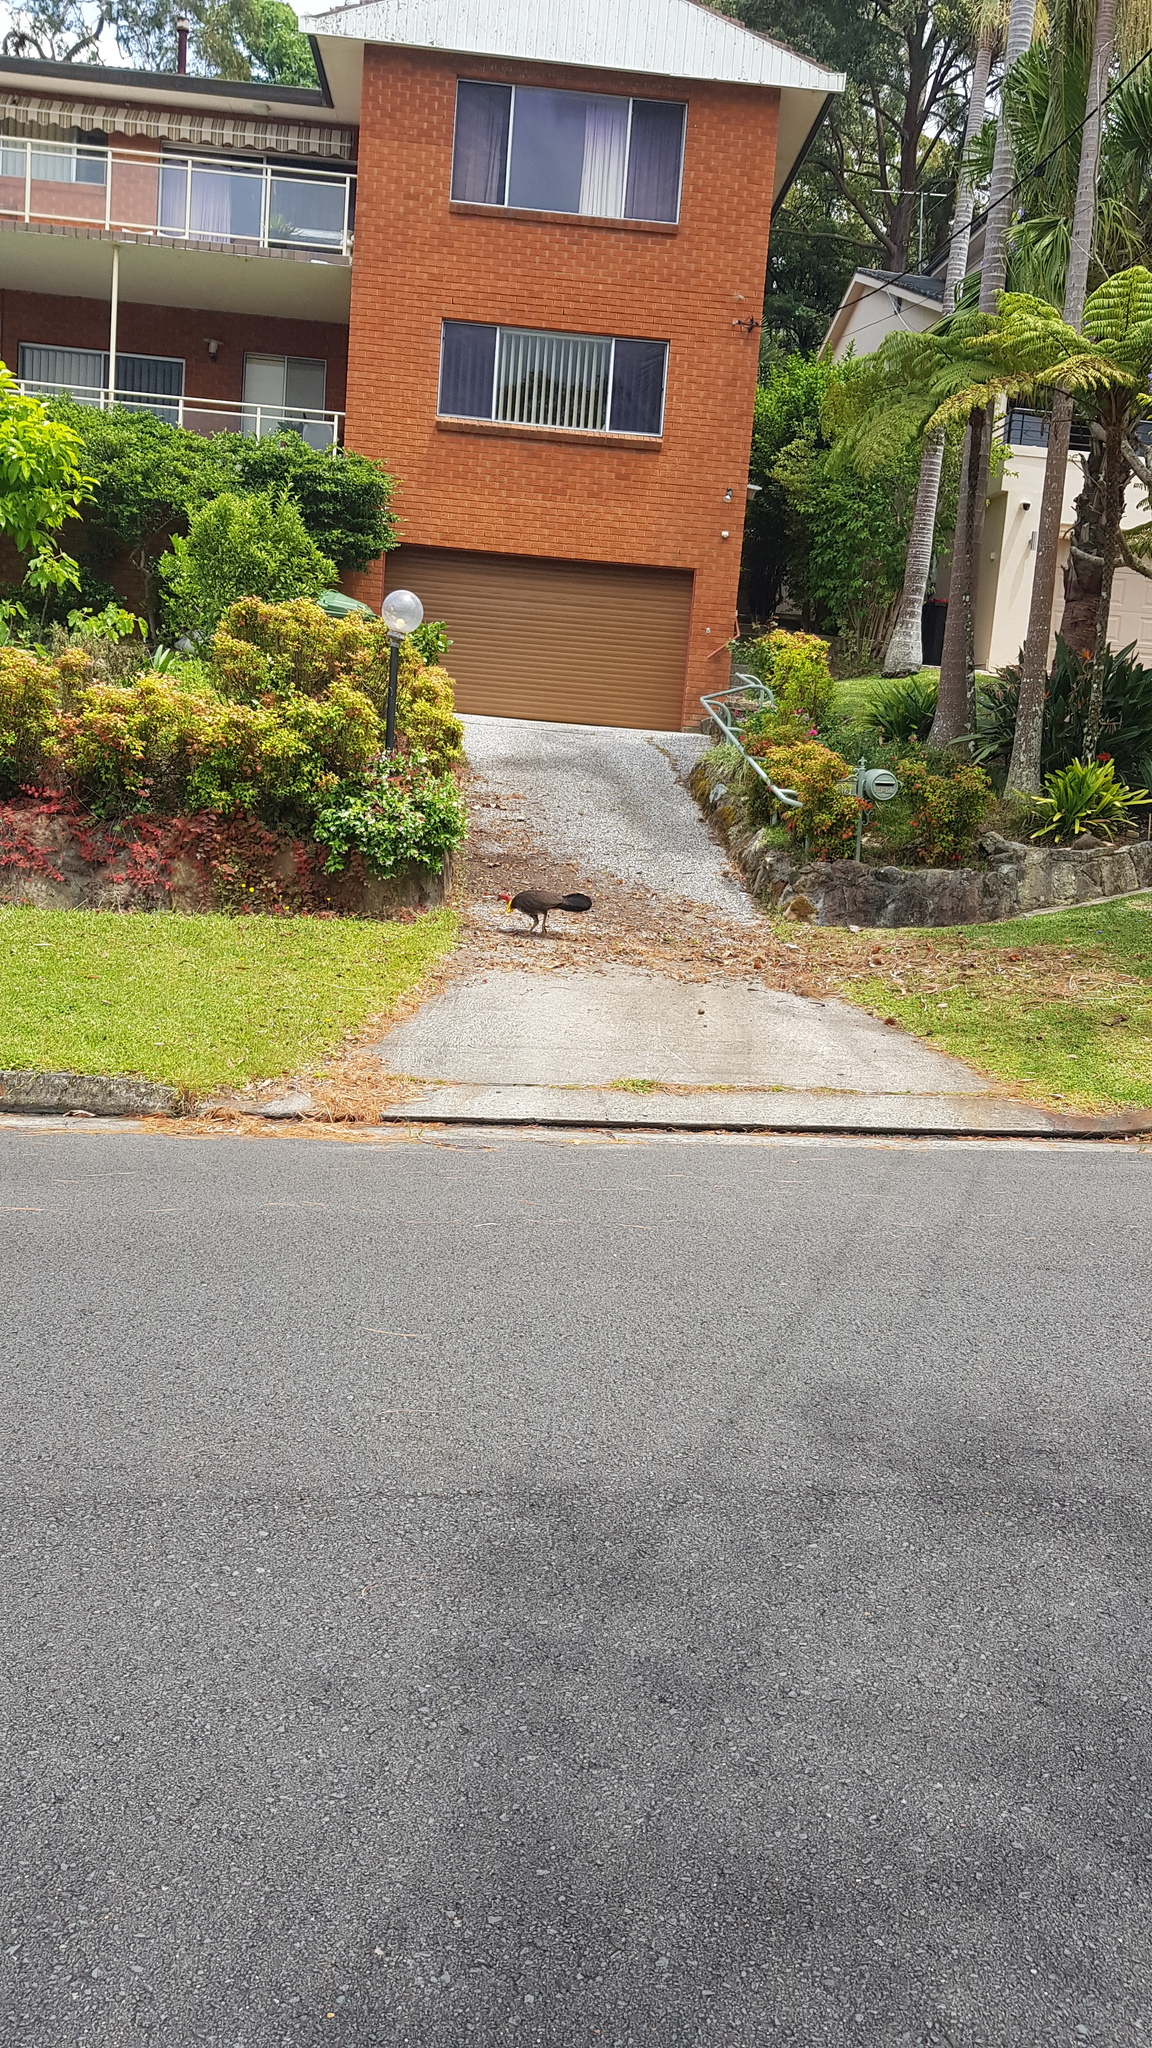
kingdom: Animalia
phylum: Chordata
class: Aves
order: Galliformes
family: Megapodiidae
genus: Alectura
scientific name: Alectura lathami
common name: Australian brushturkey
